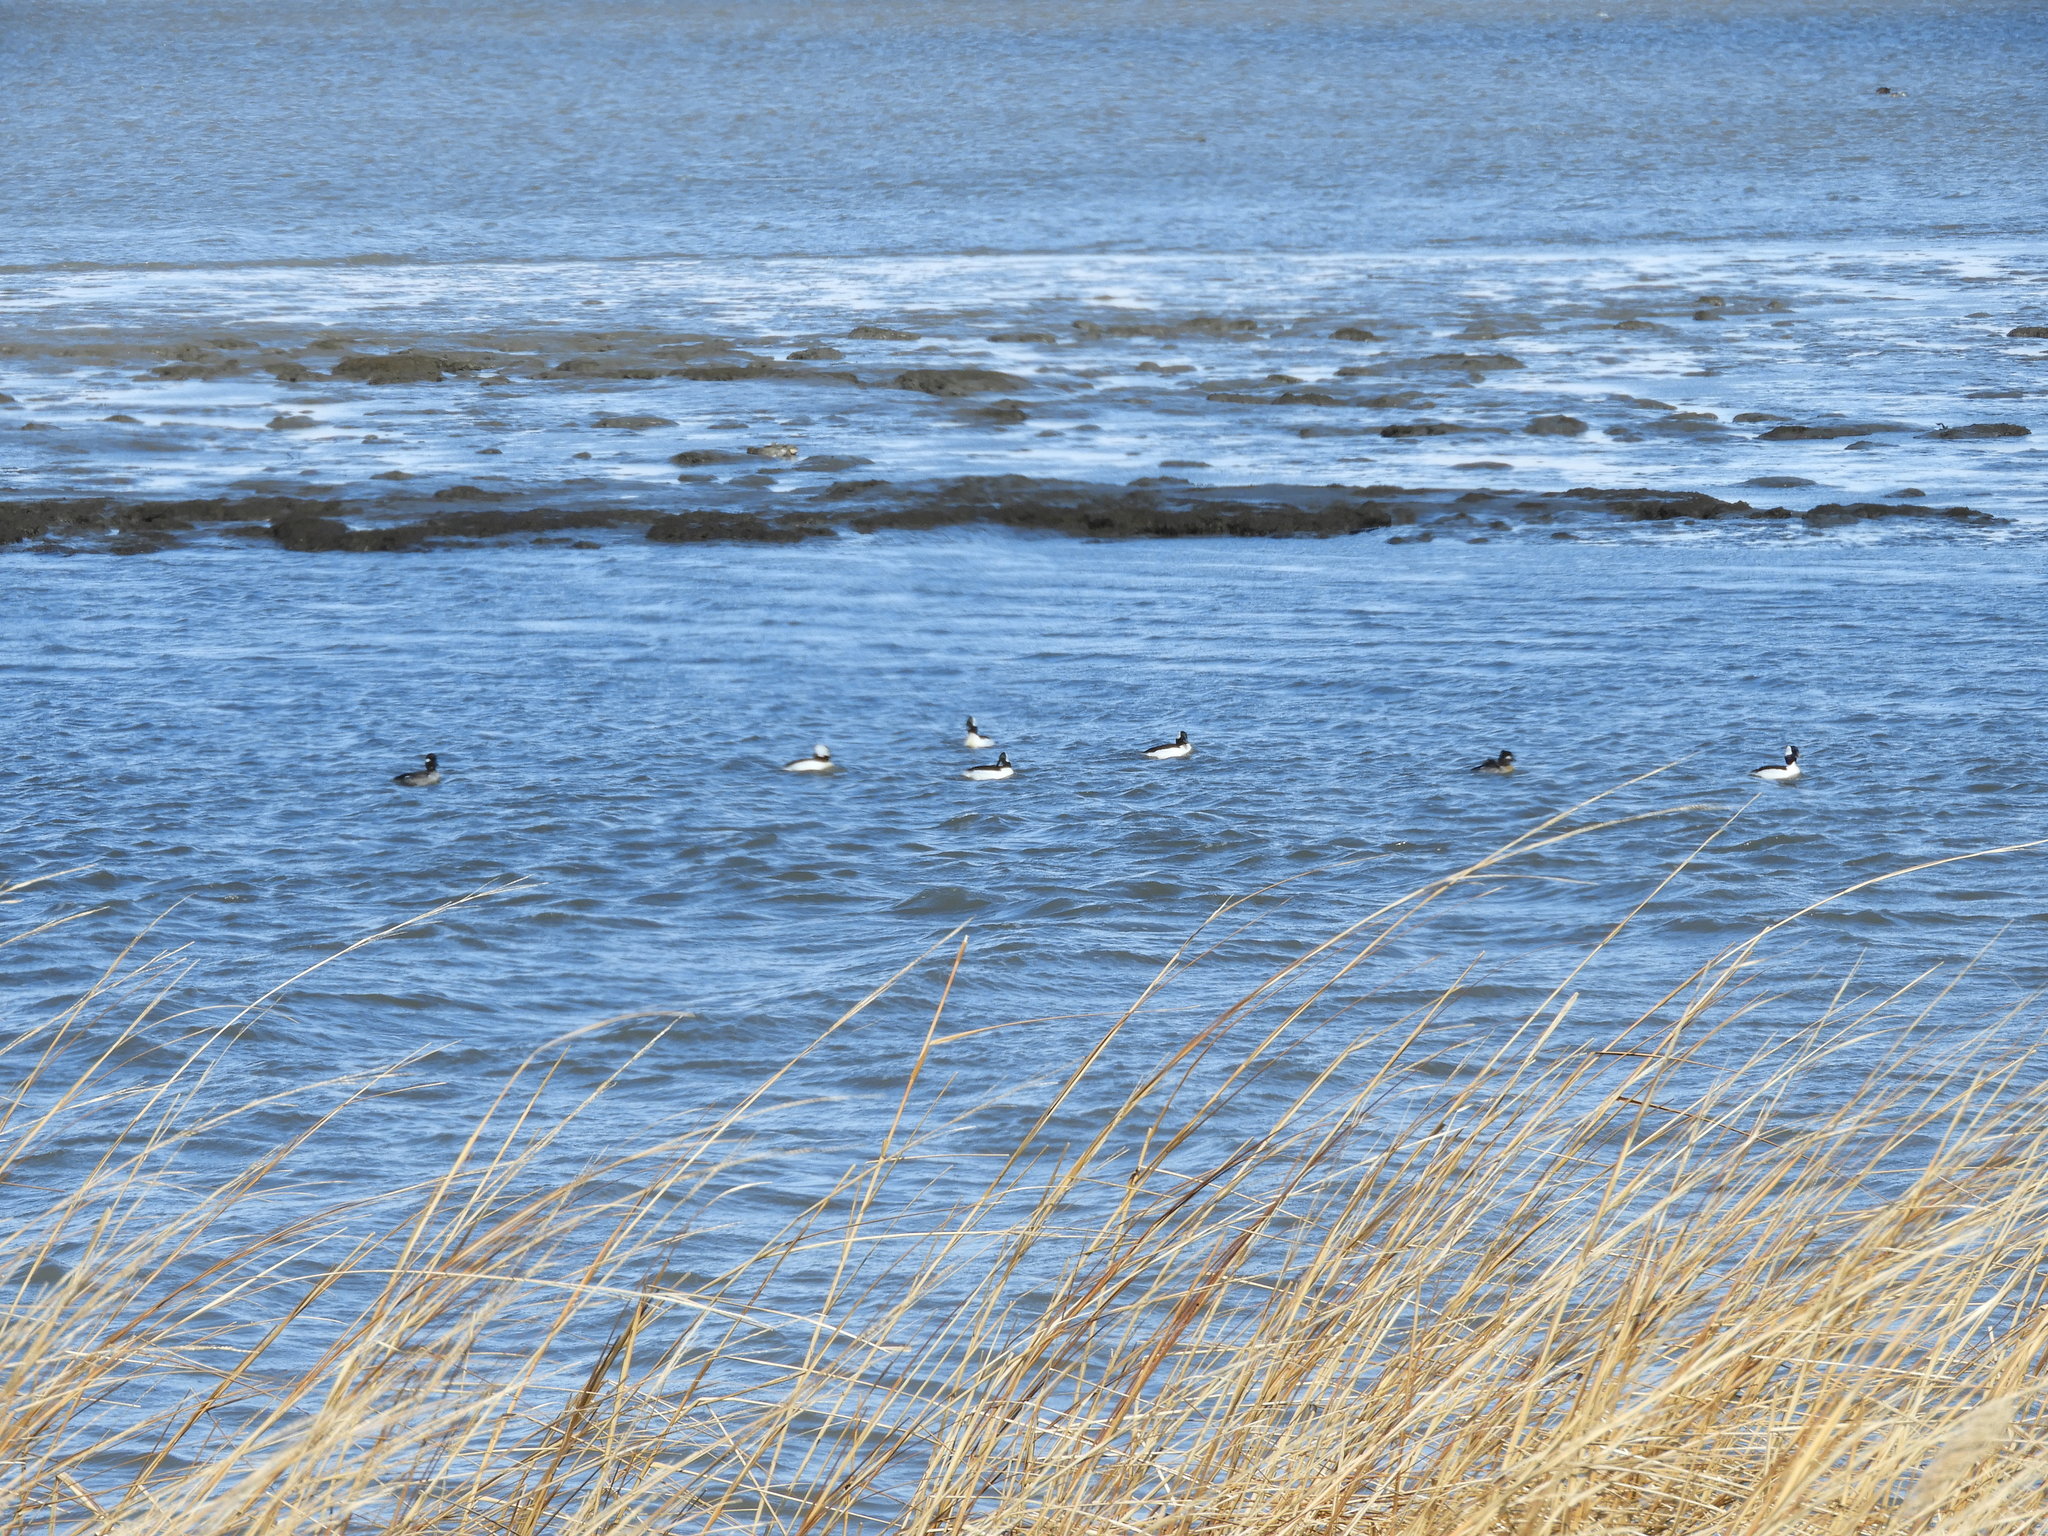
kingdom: Animalia
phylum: Chordata
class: Aves
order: Anseriformes
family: Anatidae
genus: Bucephala
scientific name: Bucephala albeola
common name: Bufflehead
